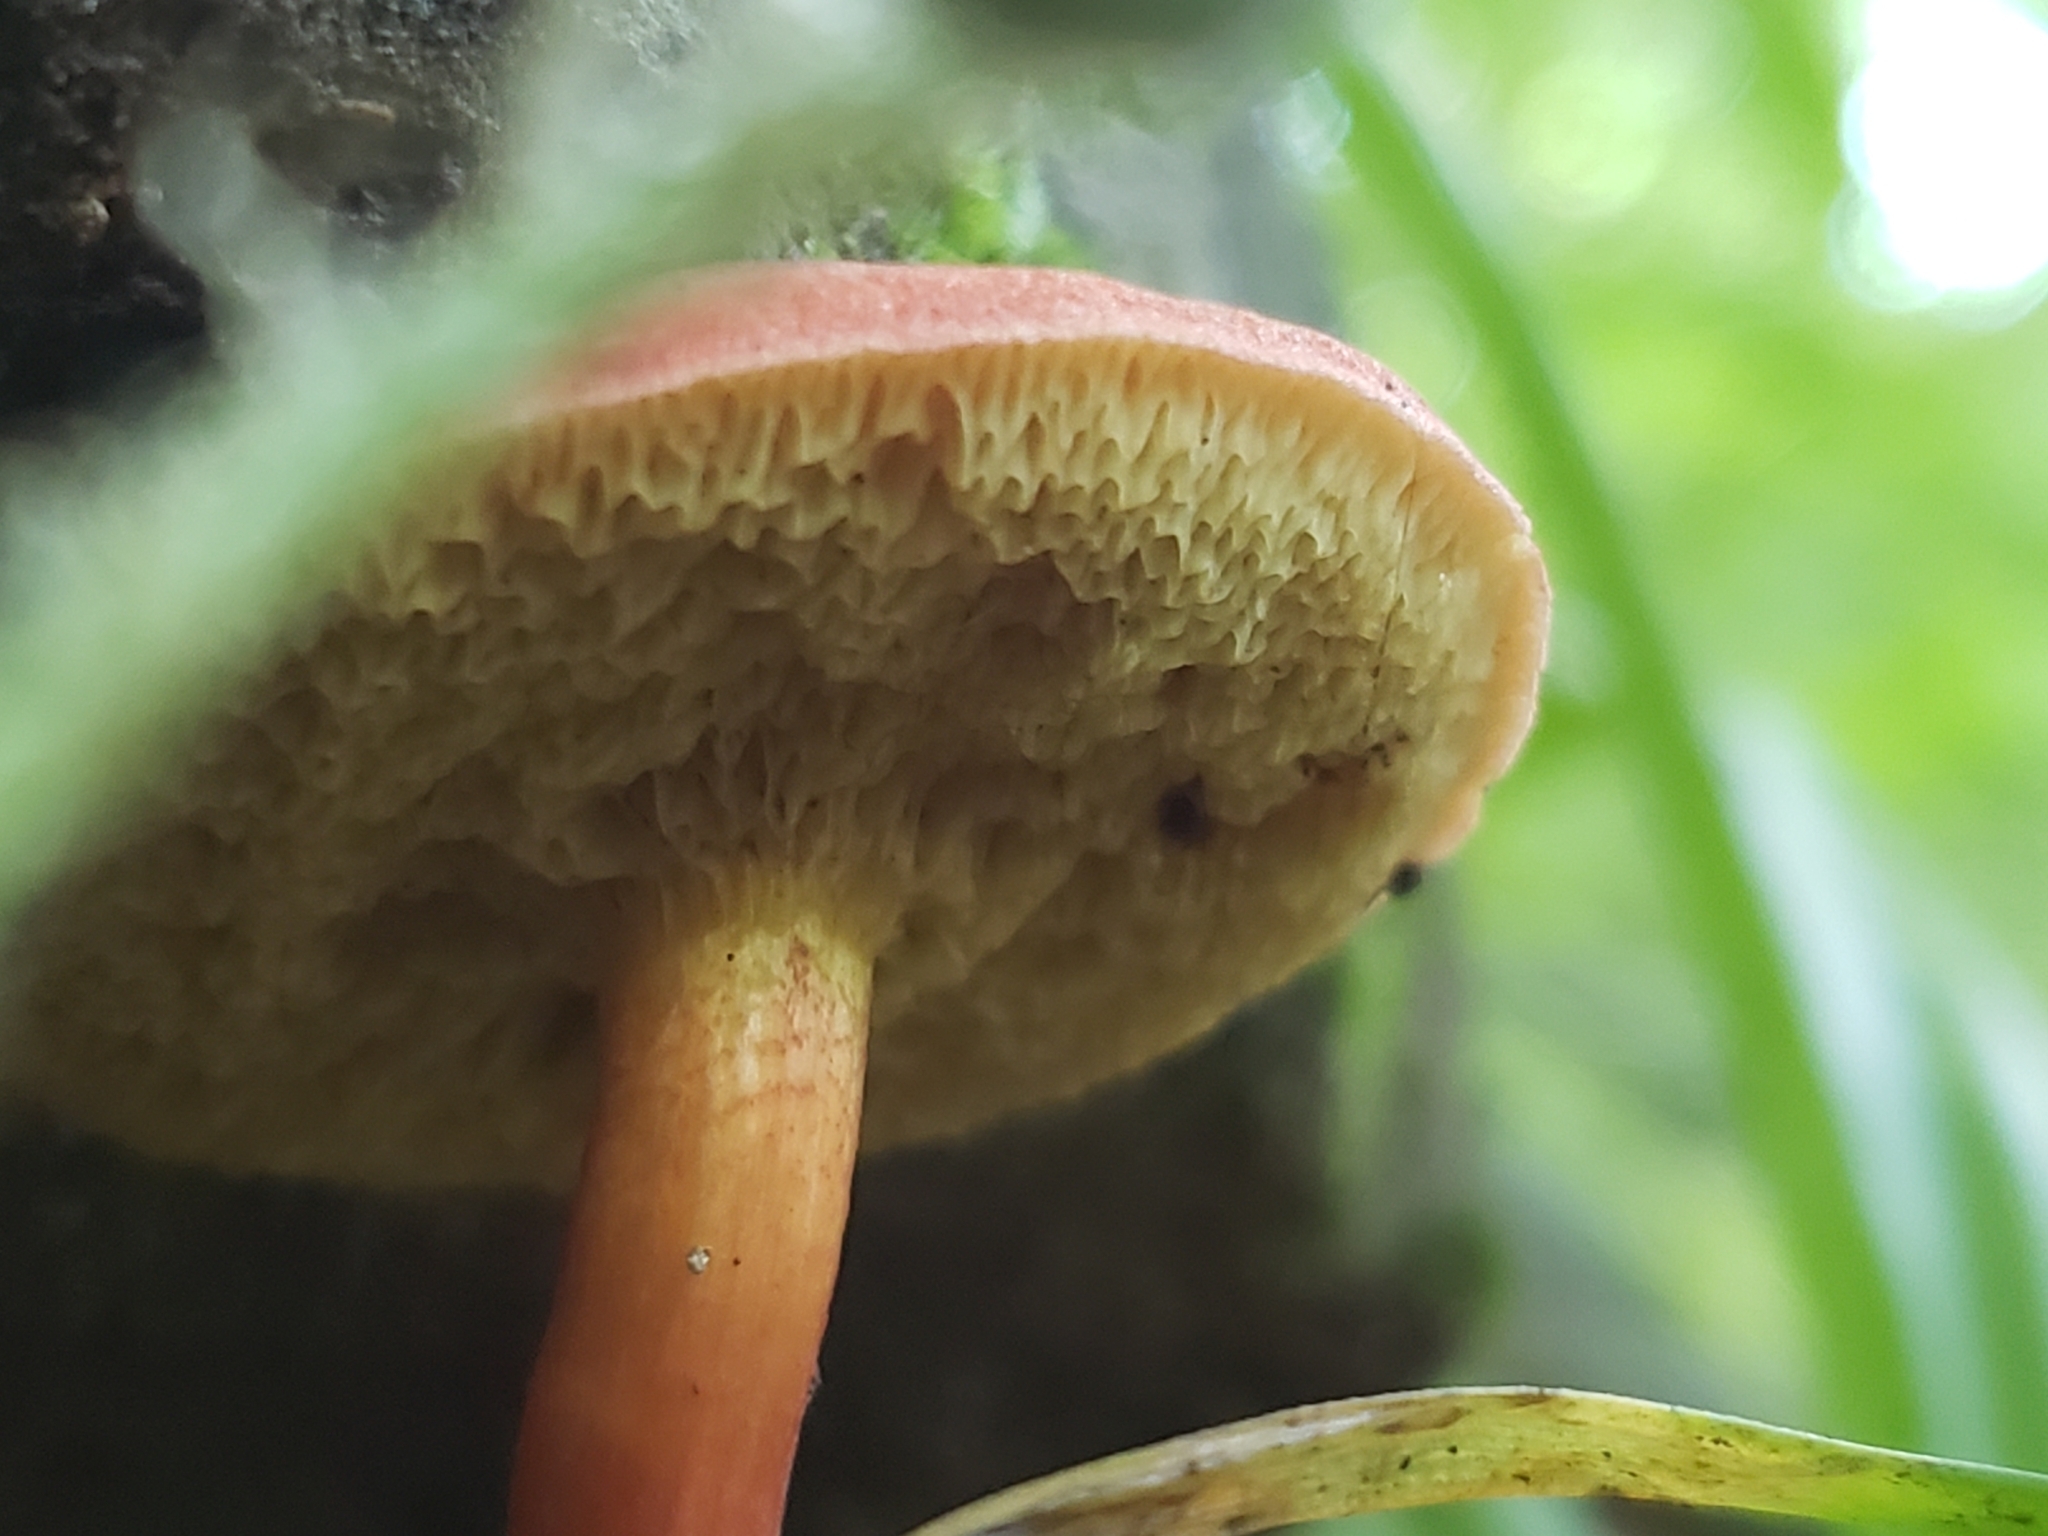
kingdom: Fungi
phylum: Basidiomycota
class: Agaricomycetes
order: Boletales
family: Boletaceae
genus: Hortiboletus
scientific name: Hortiboletus rubellus
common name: Ruby bolete
